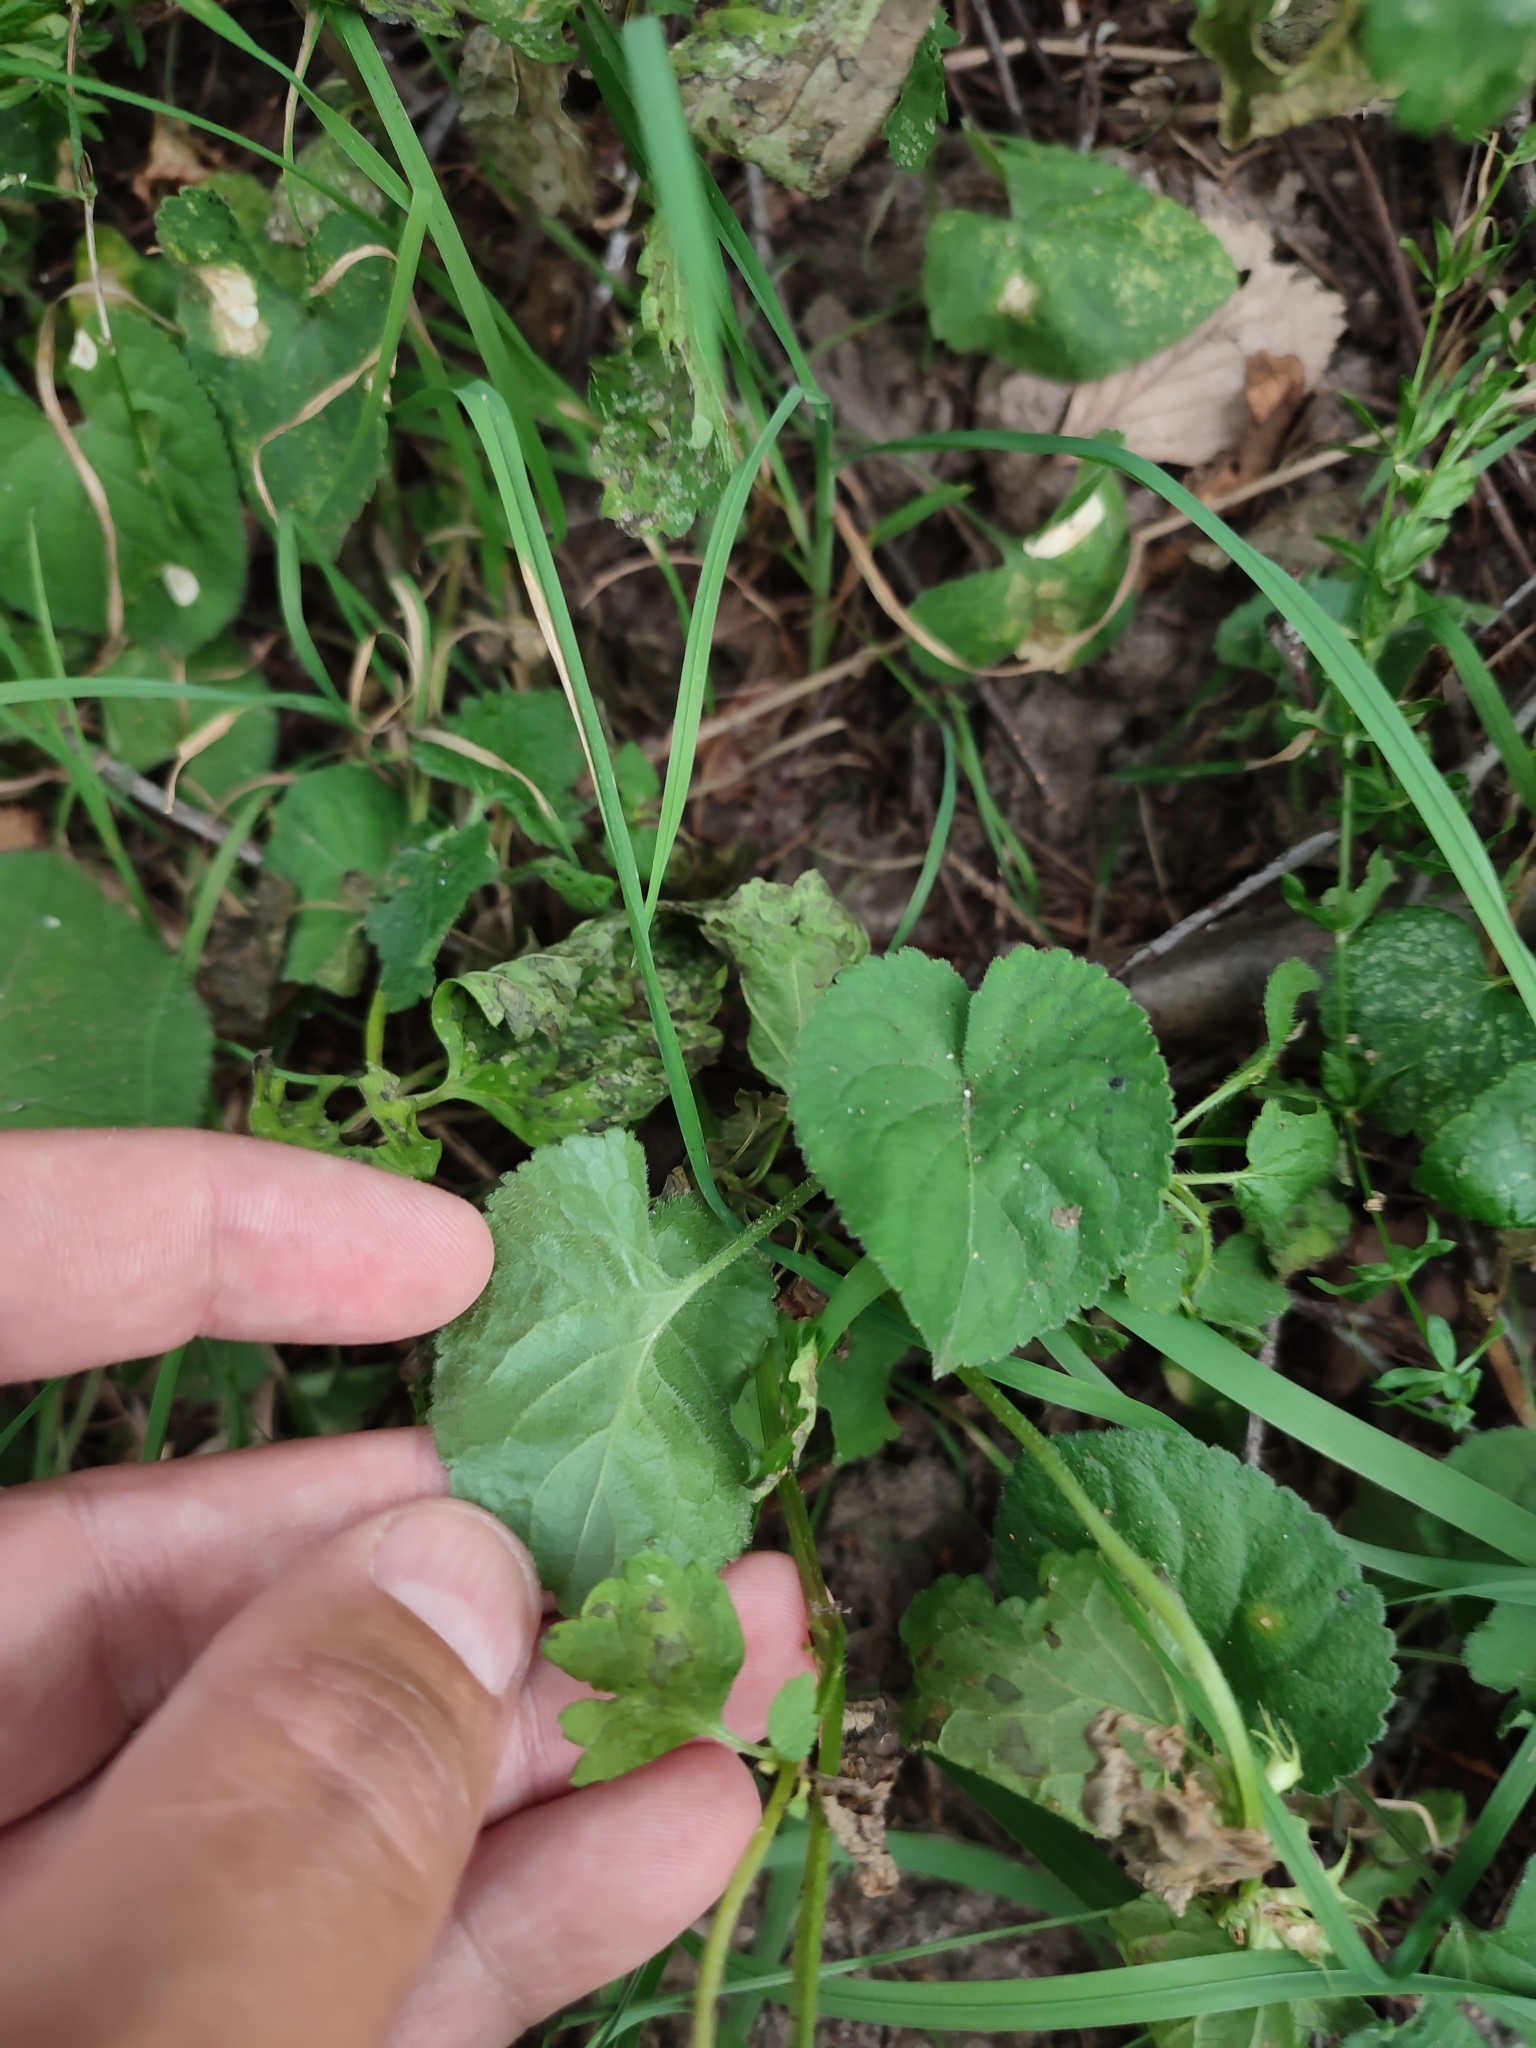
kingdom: Plantae
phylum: Tracheophyta
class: Magnoliopsida
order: Malpighiales
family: Violaceae
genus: Viola
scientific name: Viola sororia
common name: Dooryard violet
